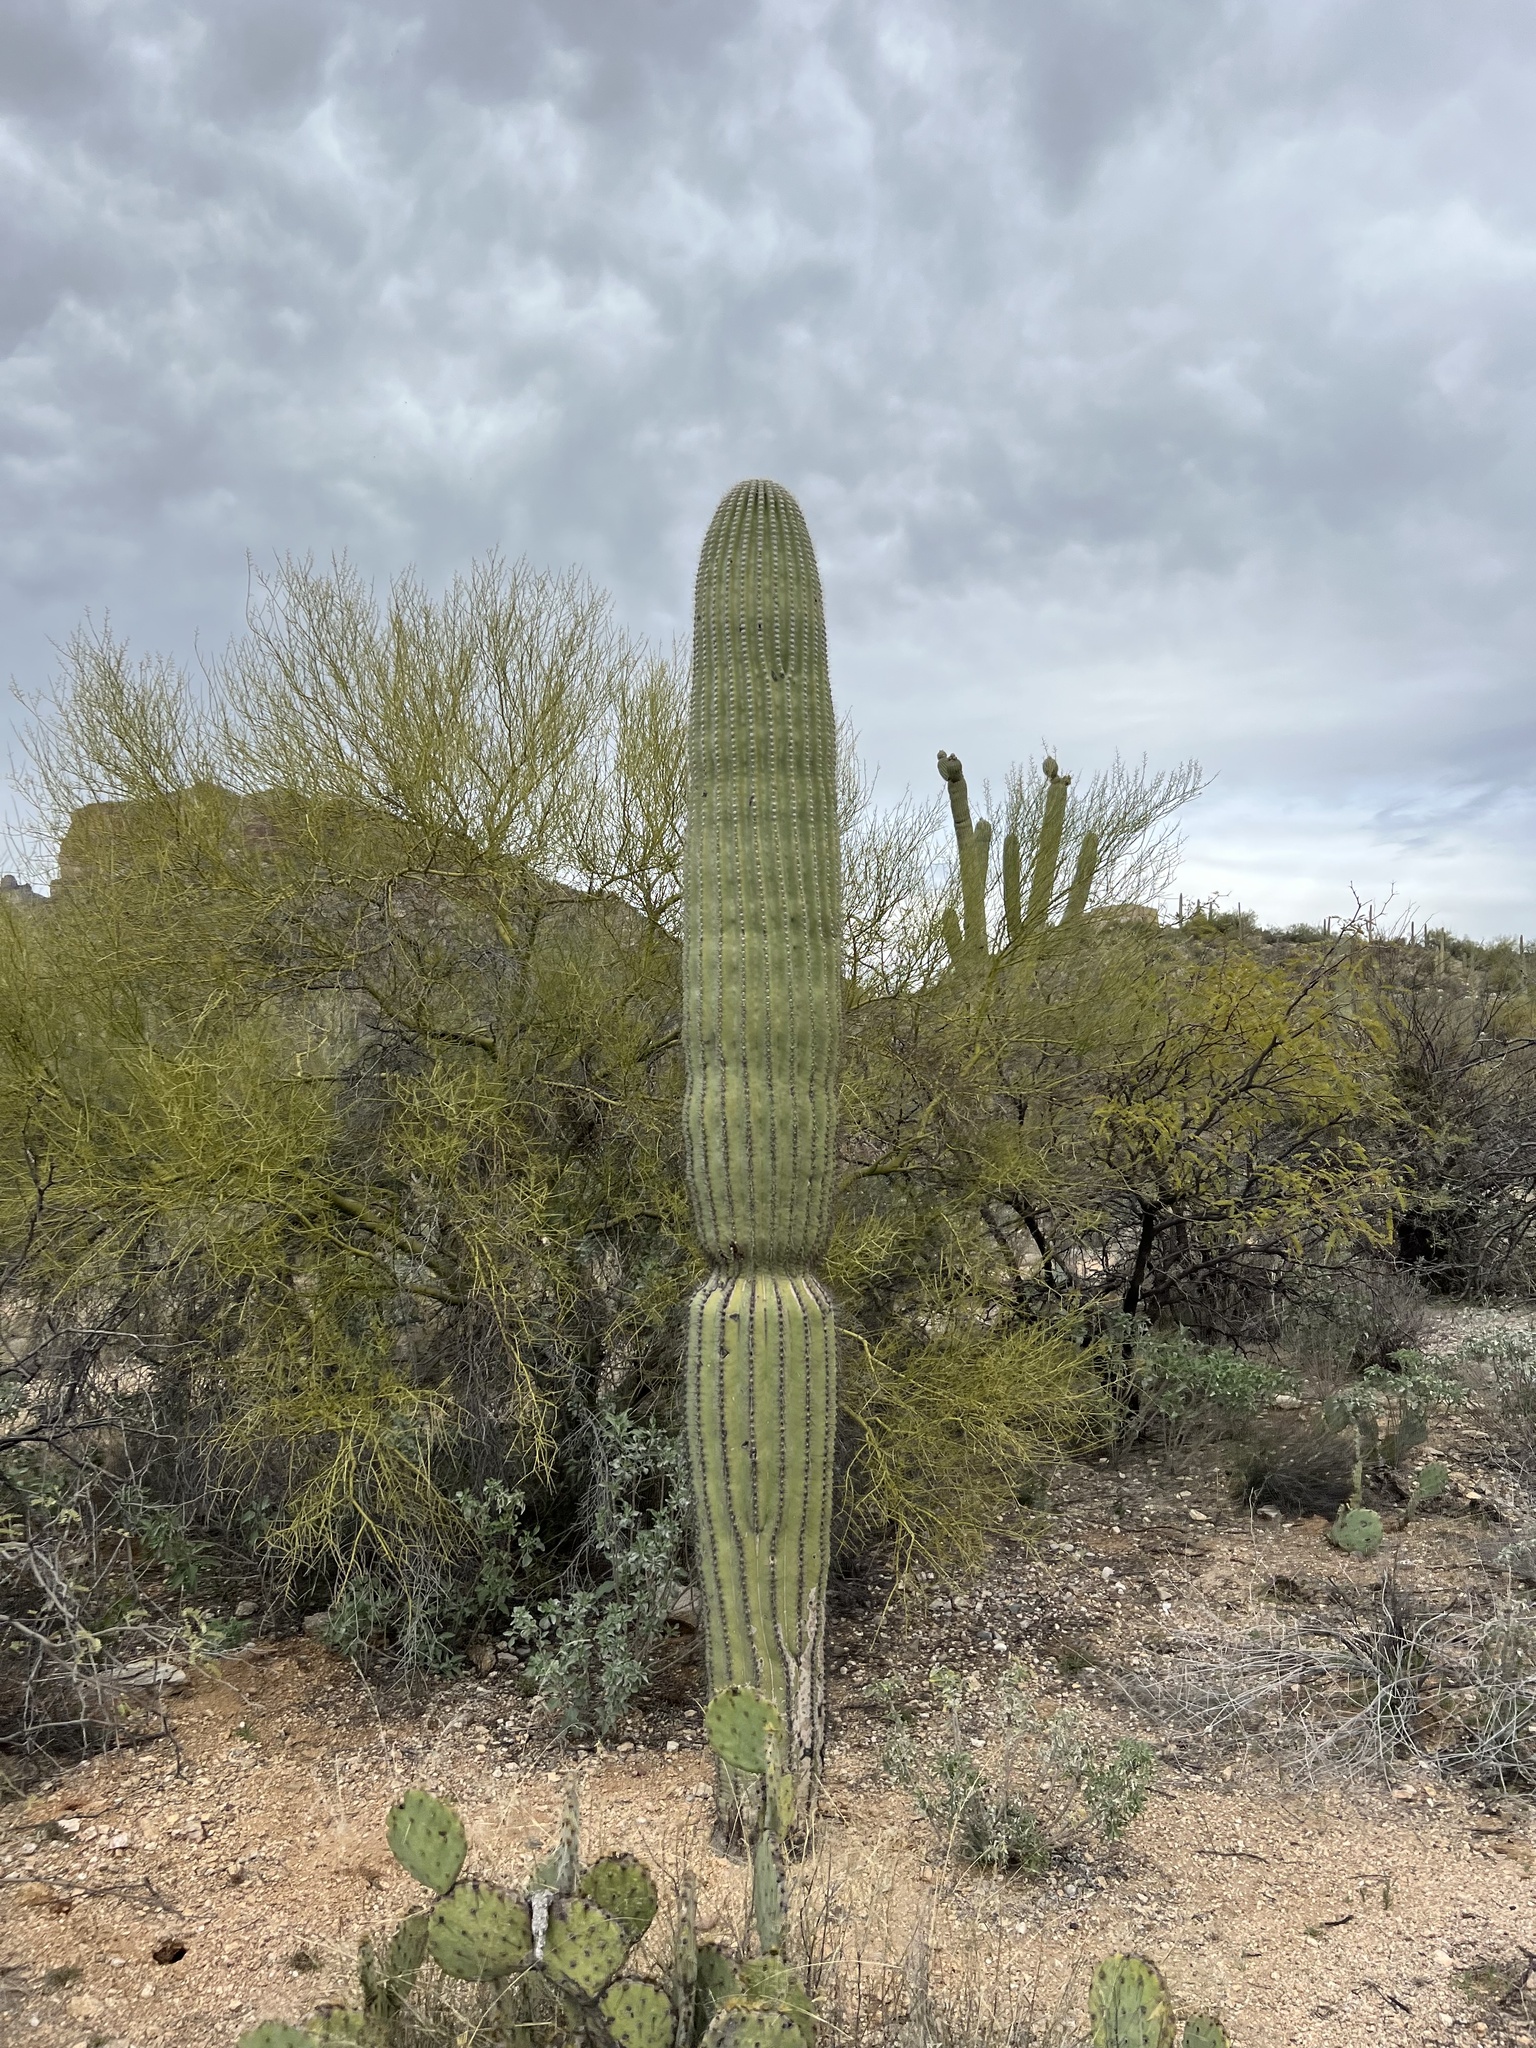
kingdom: Plantae
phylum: Tracheophyta
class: Magnoliopsida
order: Caryophyllales
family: Cactaceae
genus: Carnegiea
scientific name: Carnegiea gigantea
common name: Saguaro
